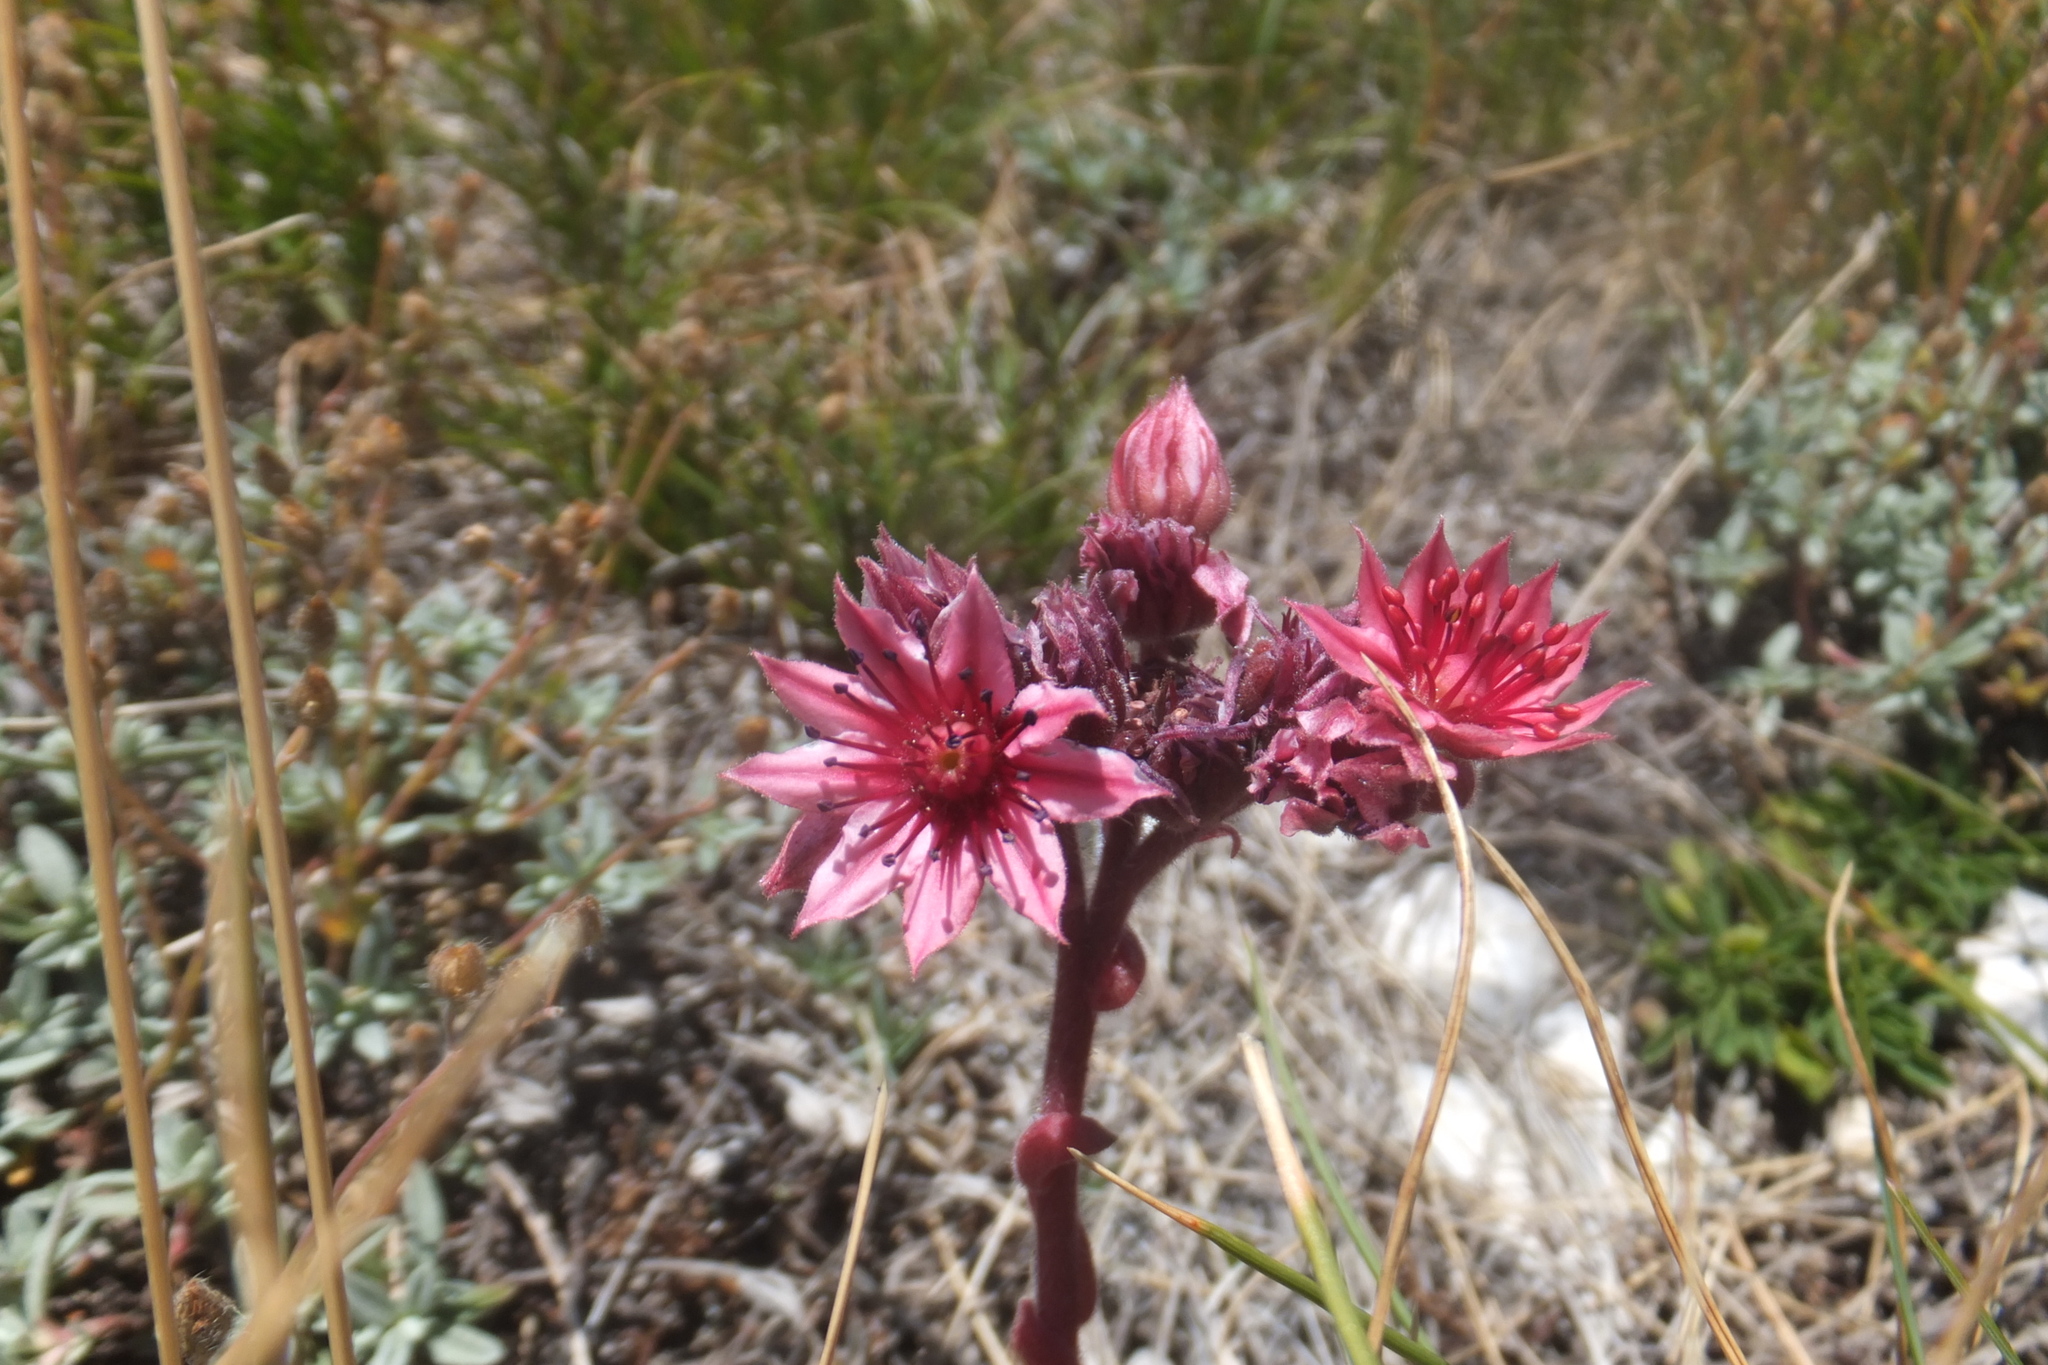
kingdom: Plantae
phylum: Tracheophyta
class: Magnoliopsida
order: Saxifragales
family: Crassulaceae
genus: Sempervivum
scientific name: Sempervivum arachnoideum
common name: Cobweb house-leek
